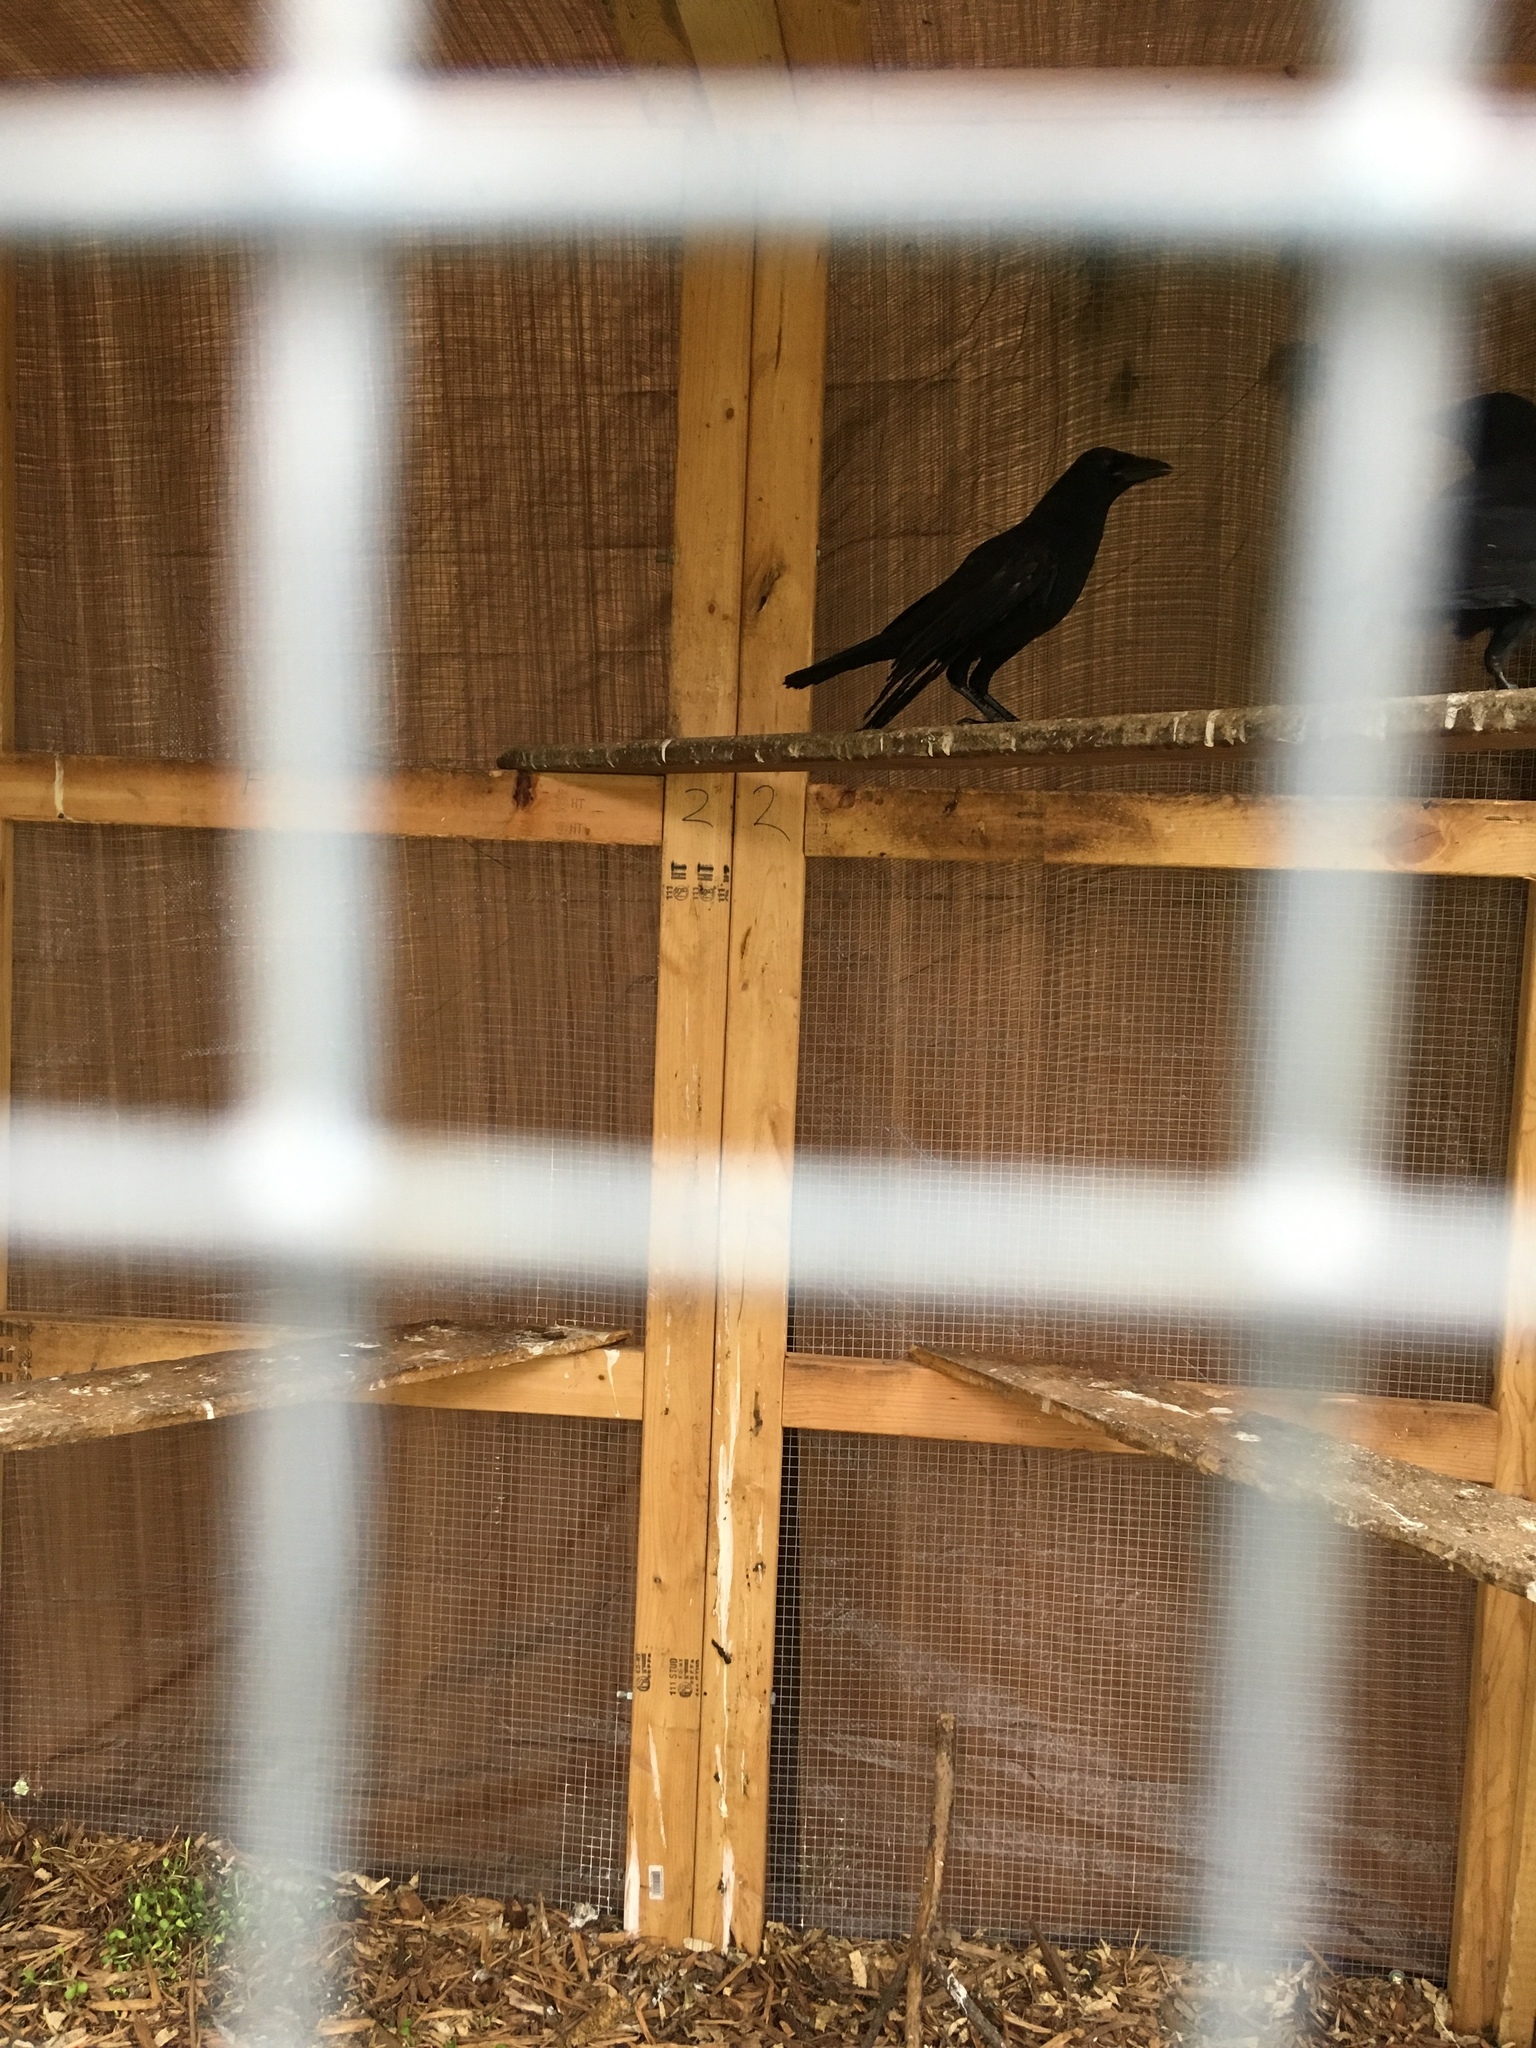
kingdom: Animalia
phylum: Chordata
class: Aves
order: Passeriformes
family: Corvidae
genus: Corvus
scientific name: Corvus brachyrhynchos
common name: American crow
